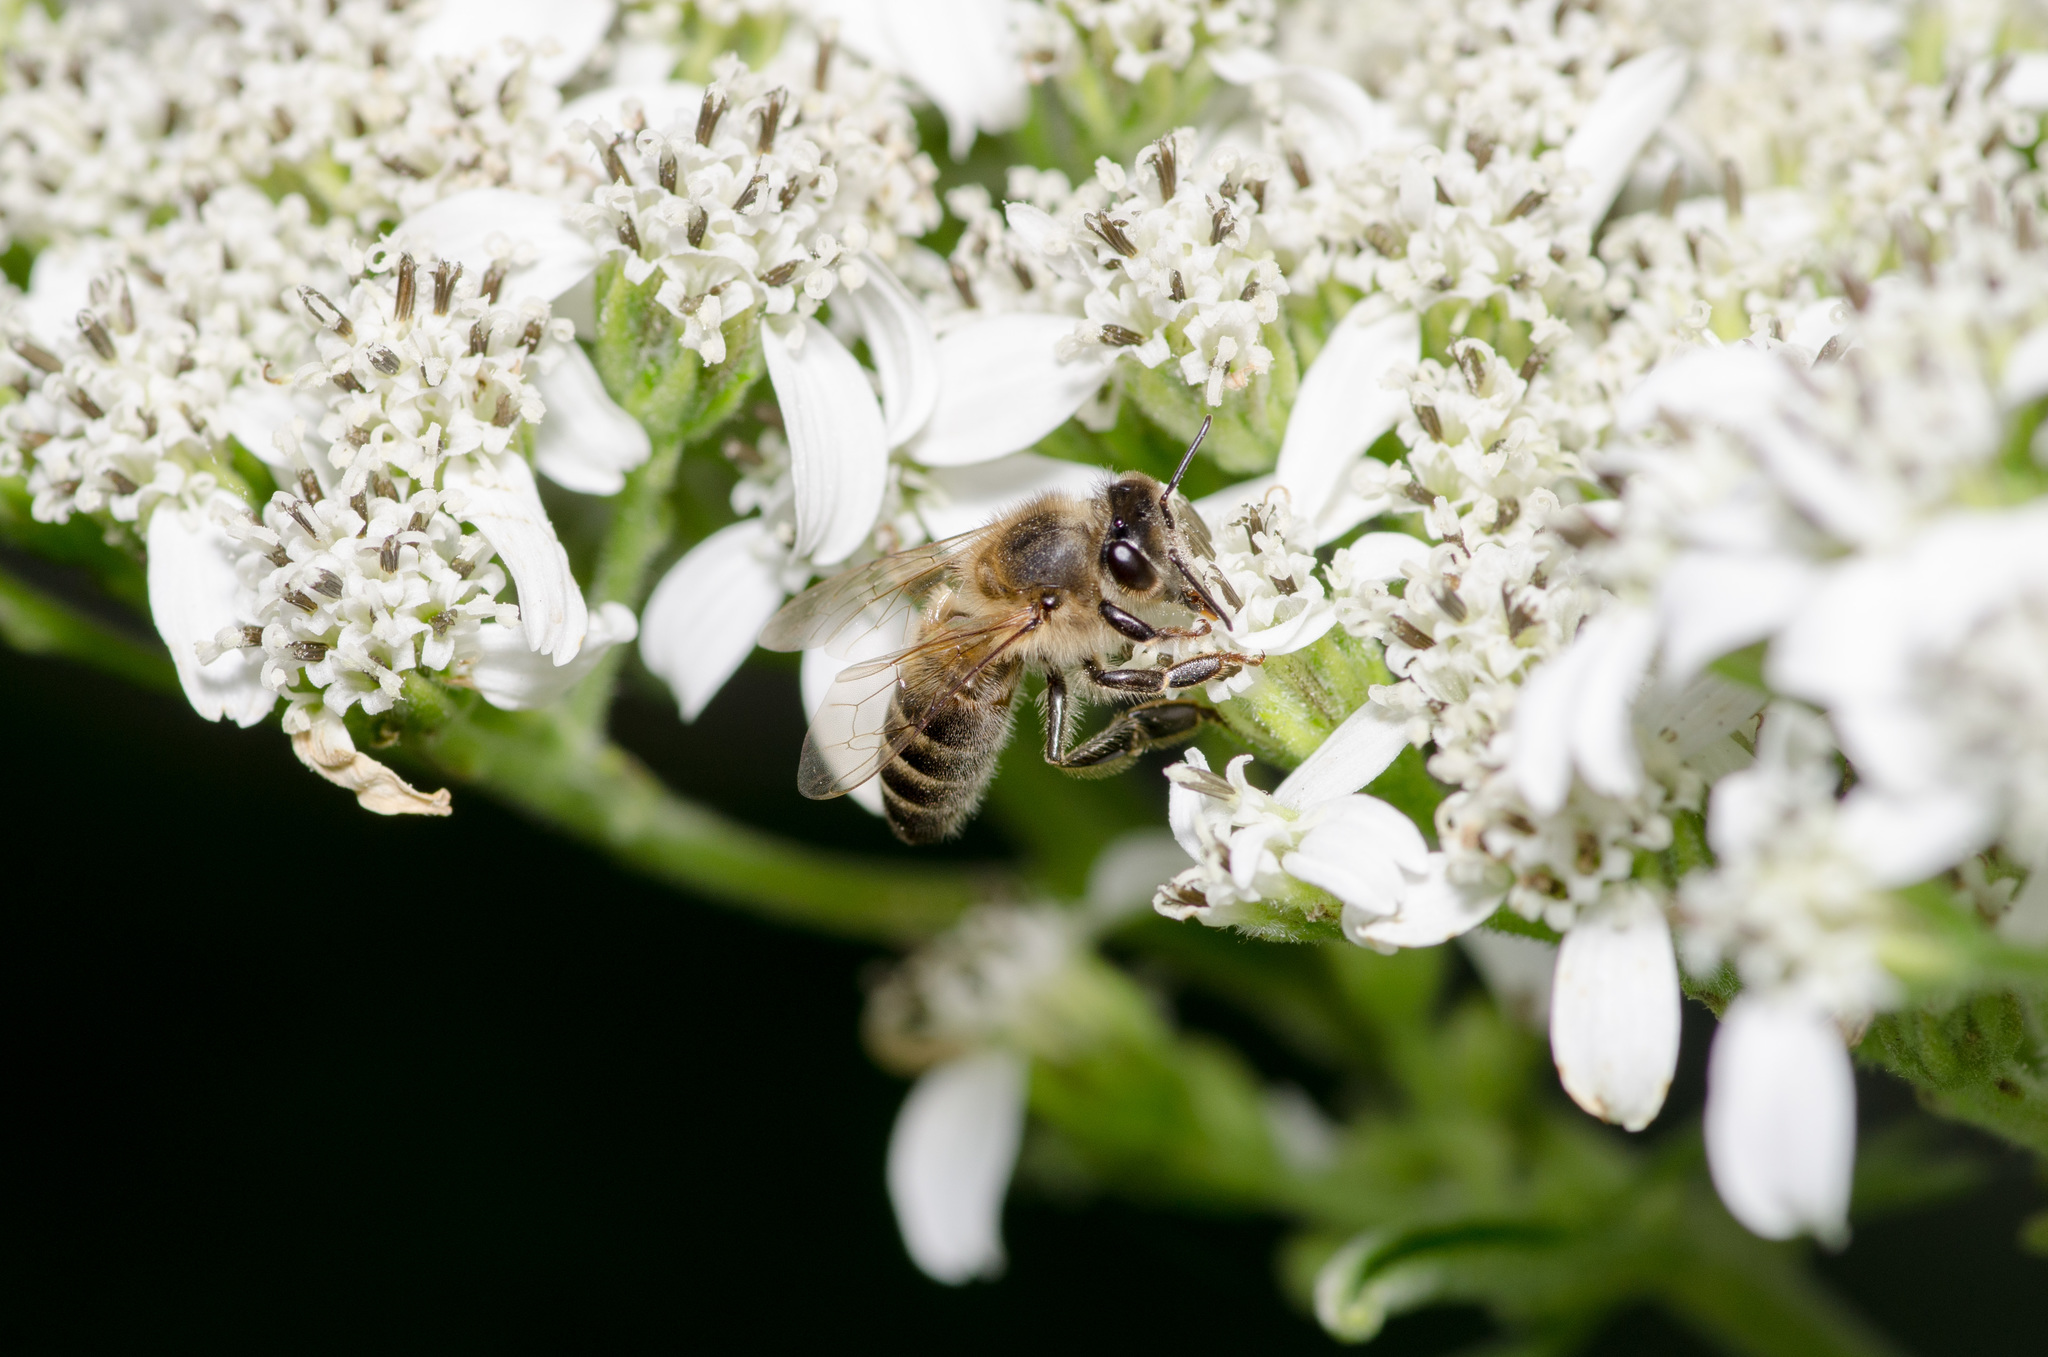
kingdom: Animalia
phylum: Arthropoda
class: Insecta
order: Hymenoptera
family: Apidae
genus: Apis
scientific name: Apis mellifera
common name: Honey bee
